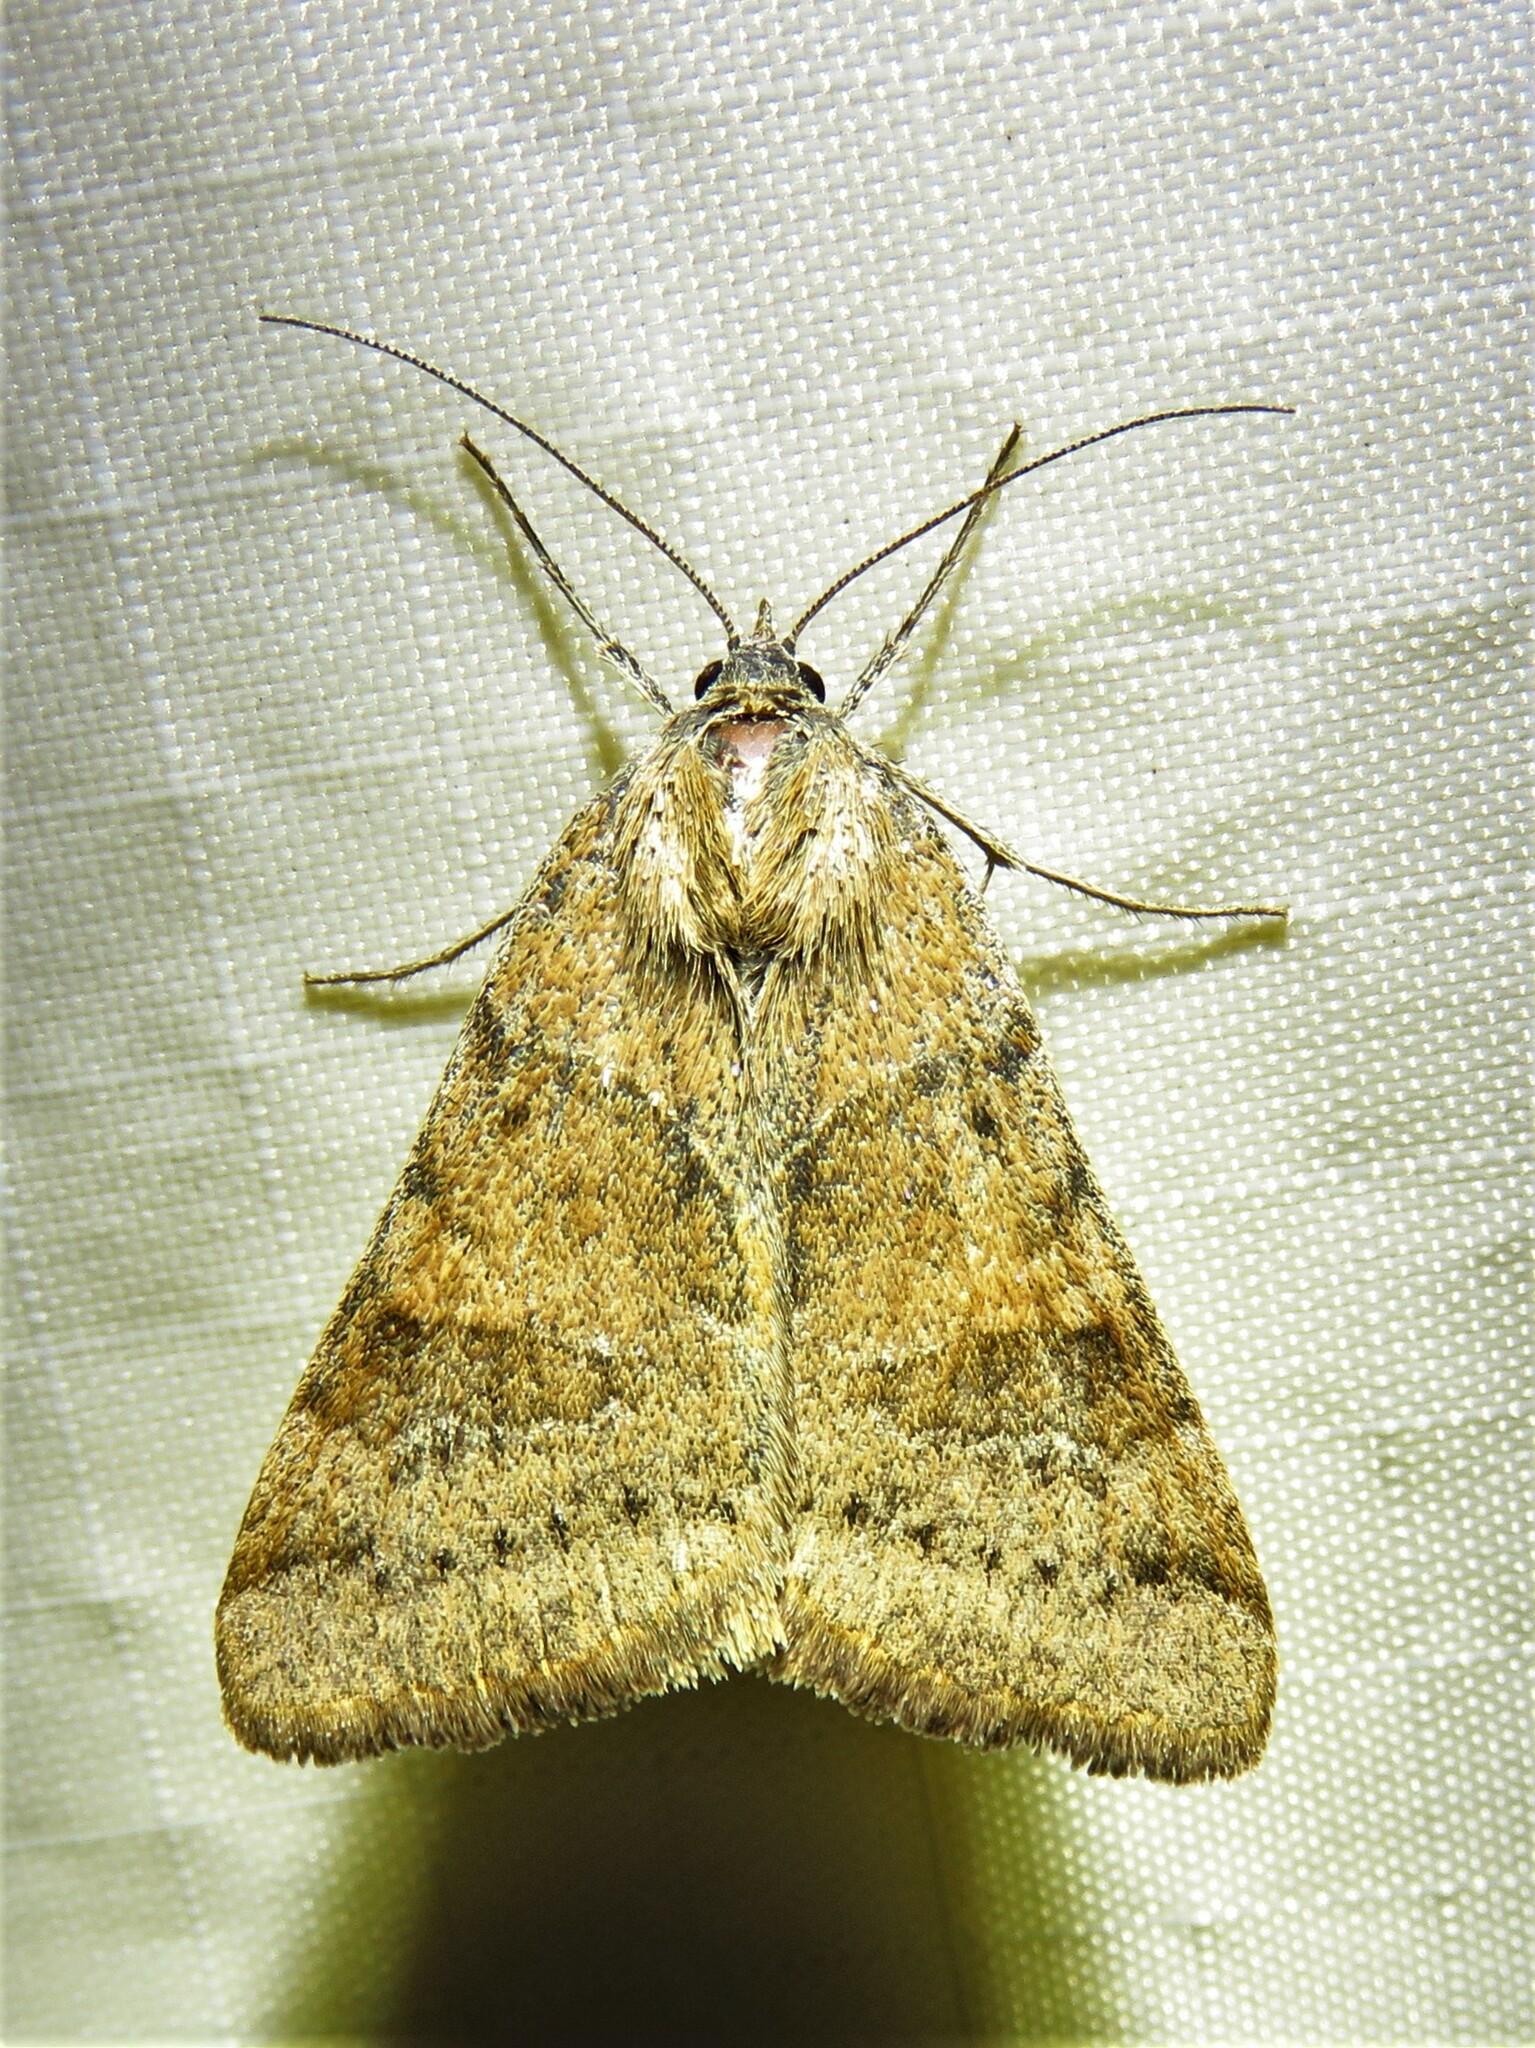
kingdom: Animalia
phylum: Arthropoda
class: Insecta
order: Lepidoptera
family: Erebidae
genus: Caenurgina
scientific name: Caenurgina erechtea
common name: Forage looper moth
